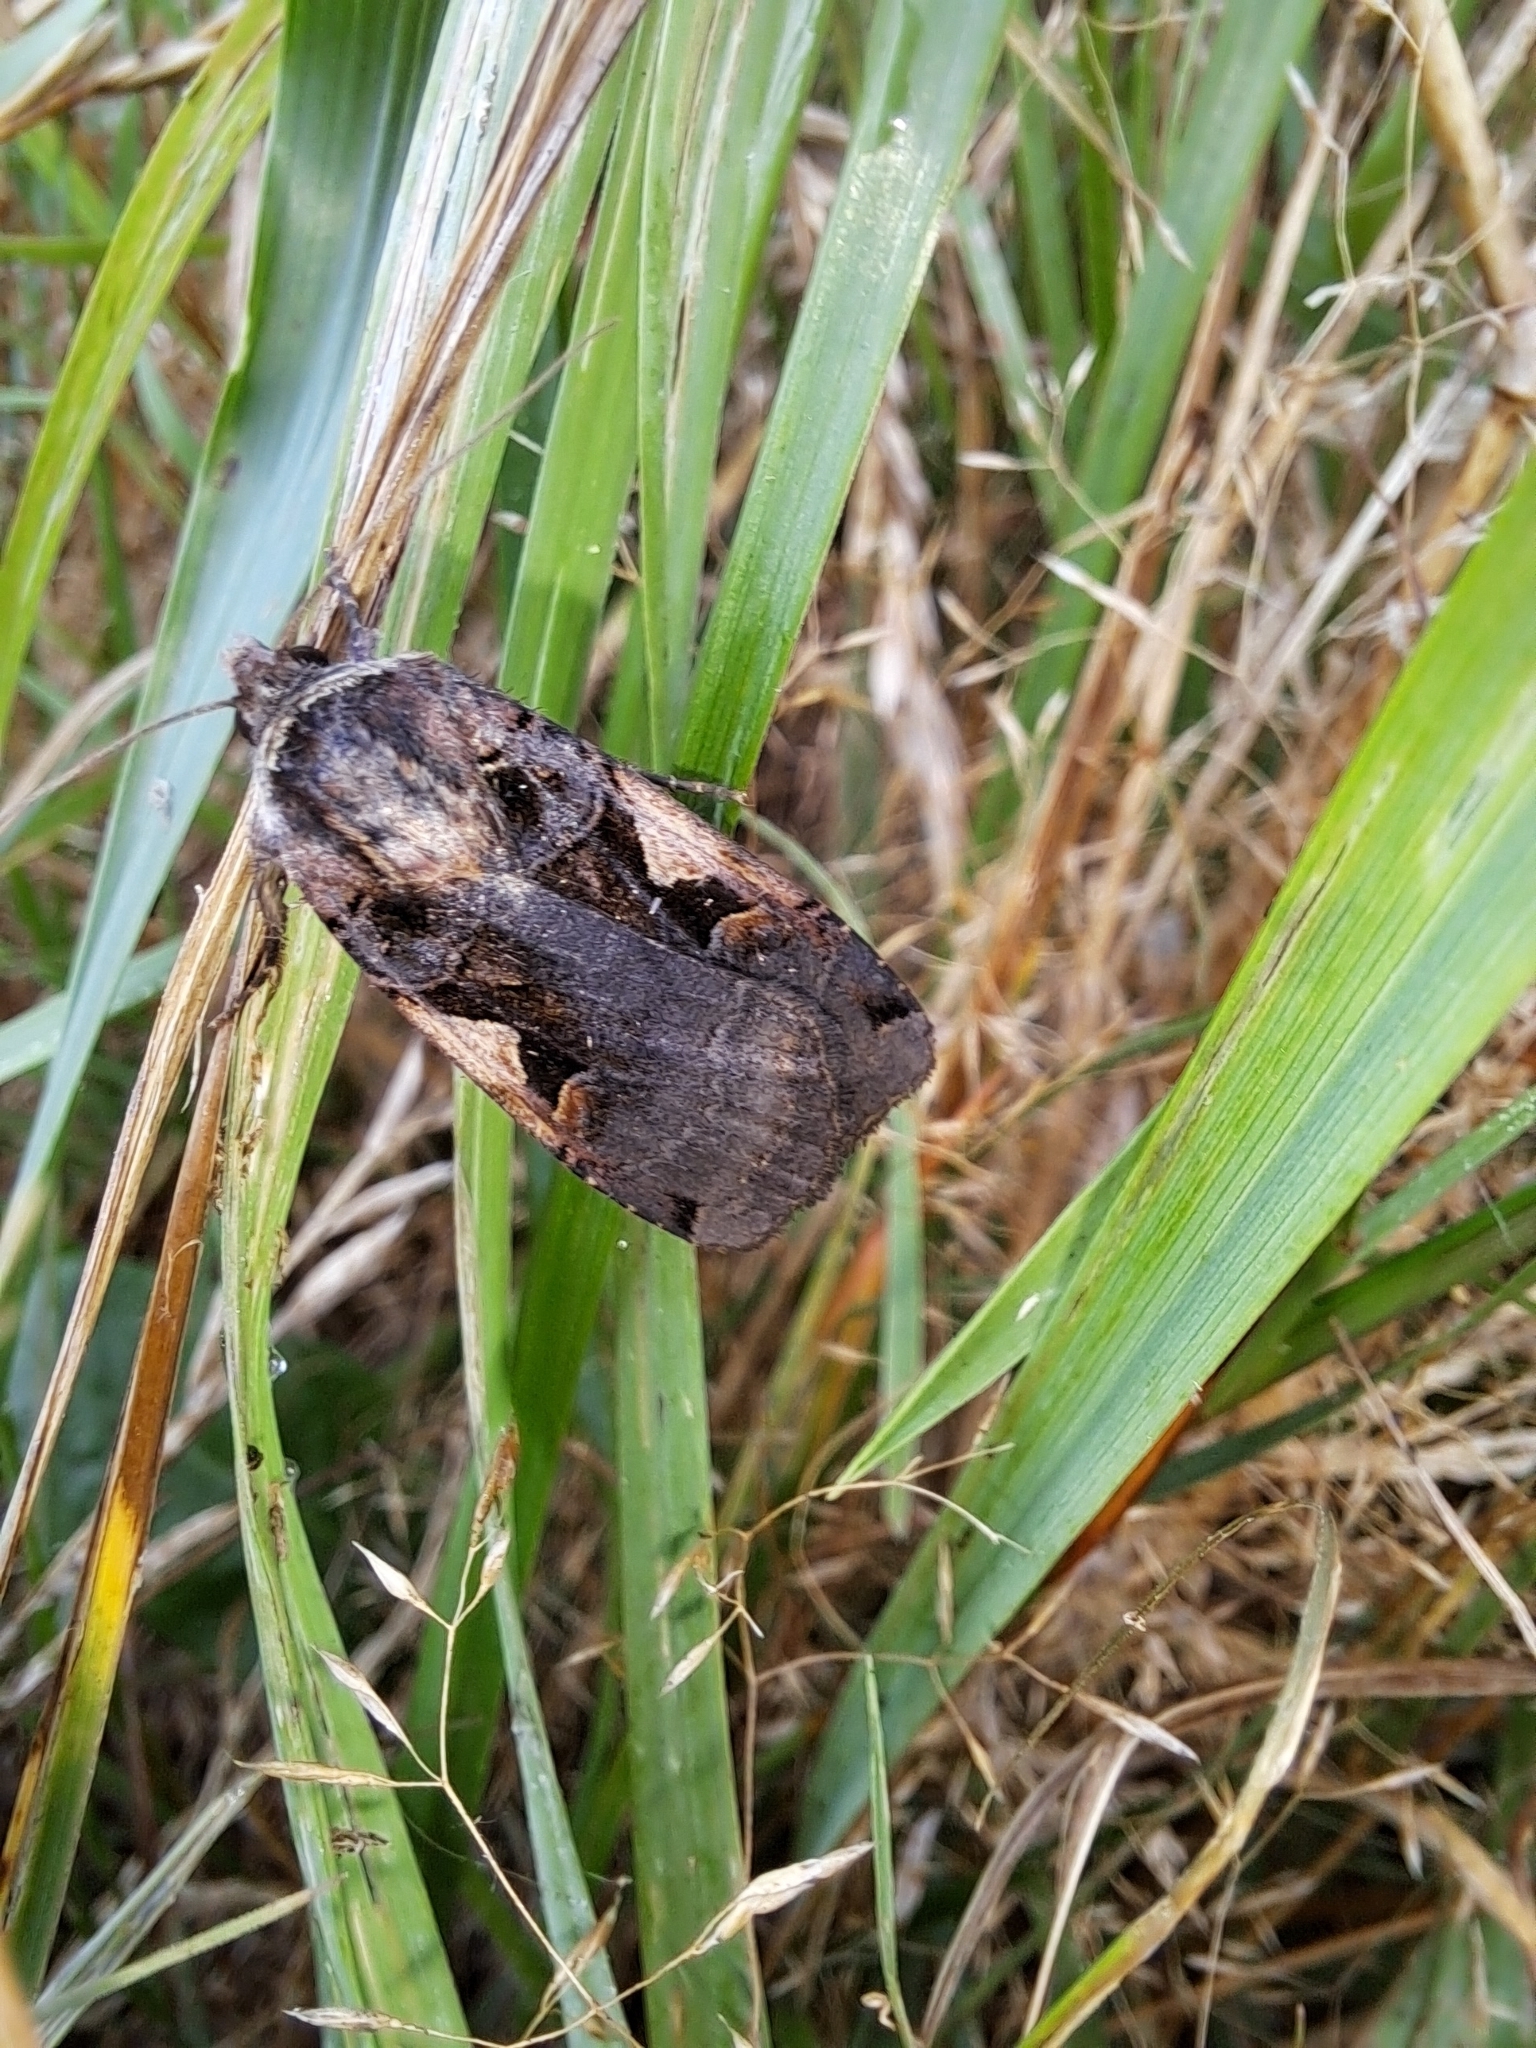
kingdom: Animalia
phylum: Arthropoda
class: Insecta
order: Lepidoptera
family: Noctuidae
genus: Xestia
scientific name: Xestia
